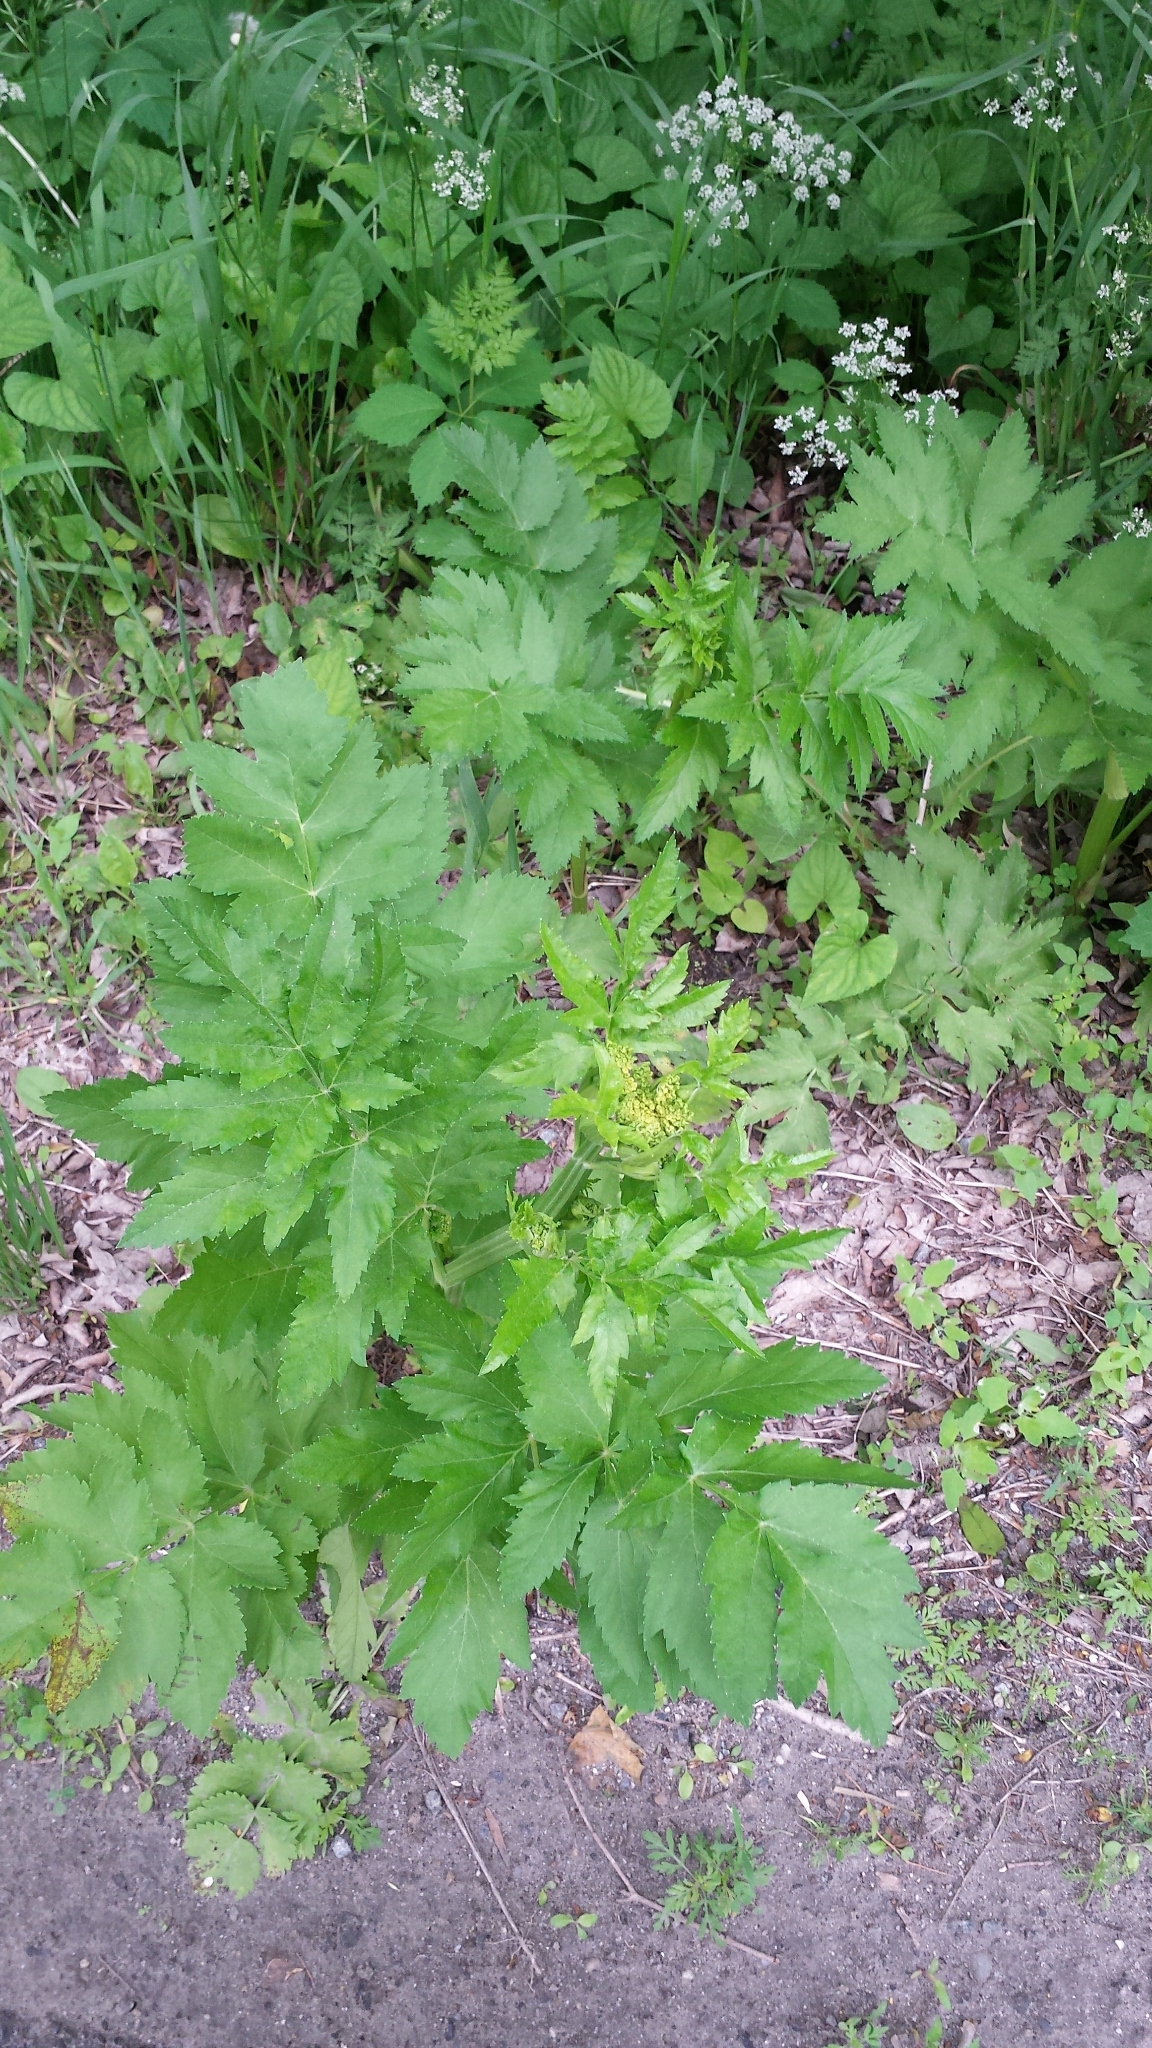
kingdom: Plantae
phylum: Tracheophyta
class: Magnoliopsida
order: Apiales
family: Apiaceae
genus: Pastinaca
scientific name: Pastinaca sativa
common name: Wild parsnip
